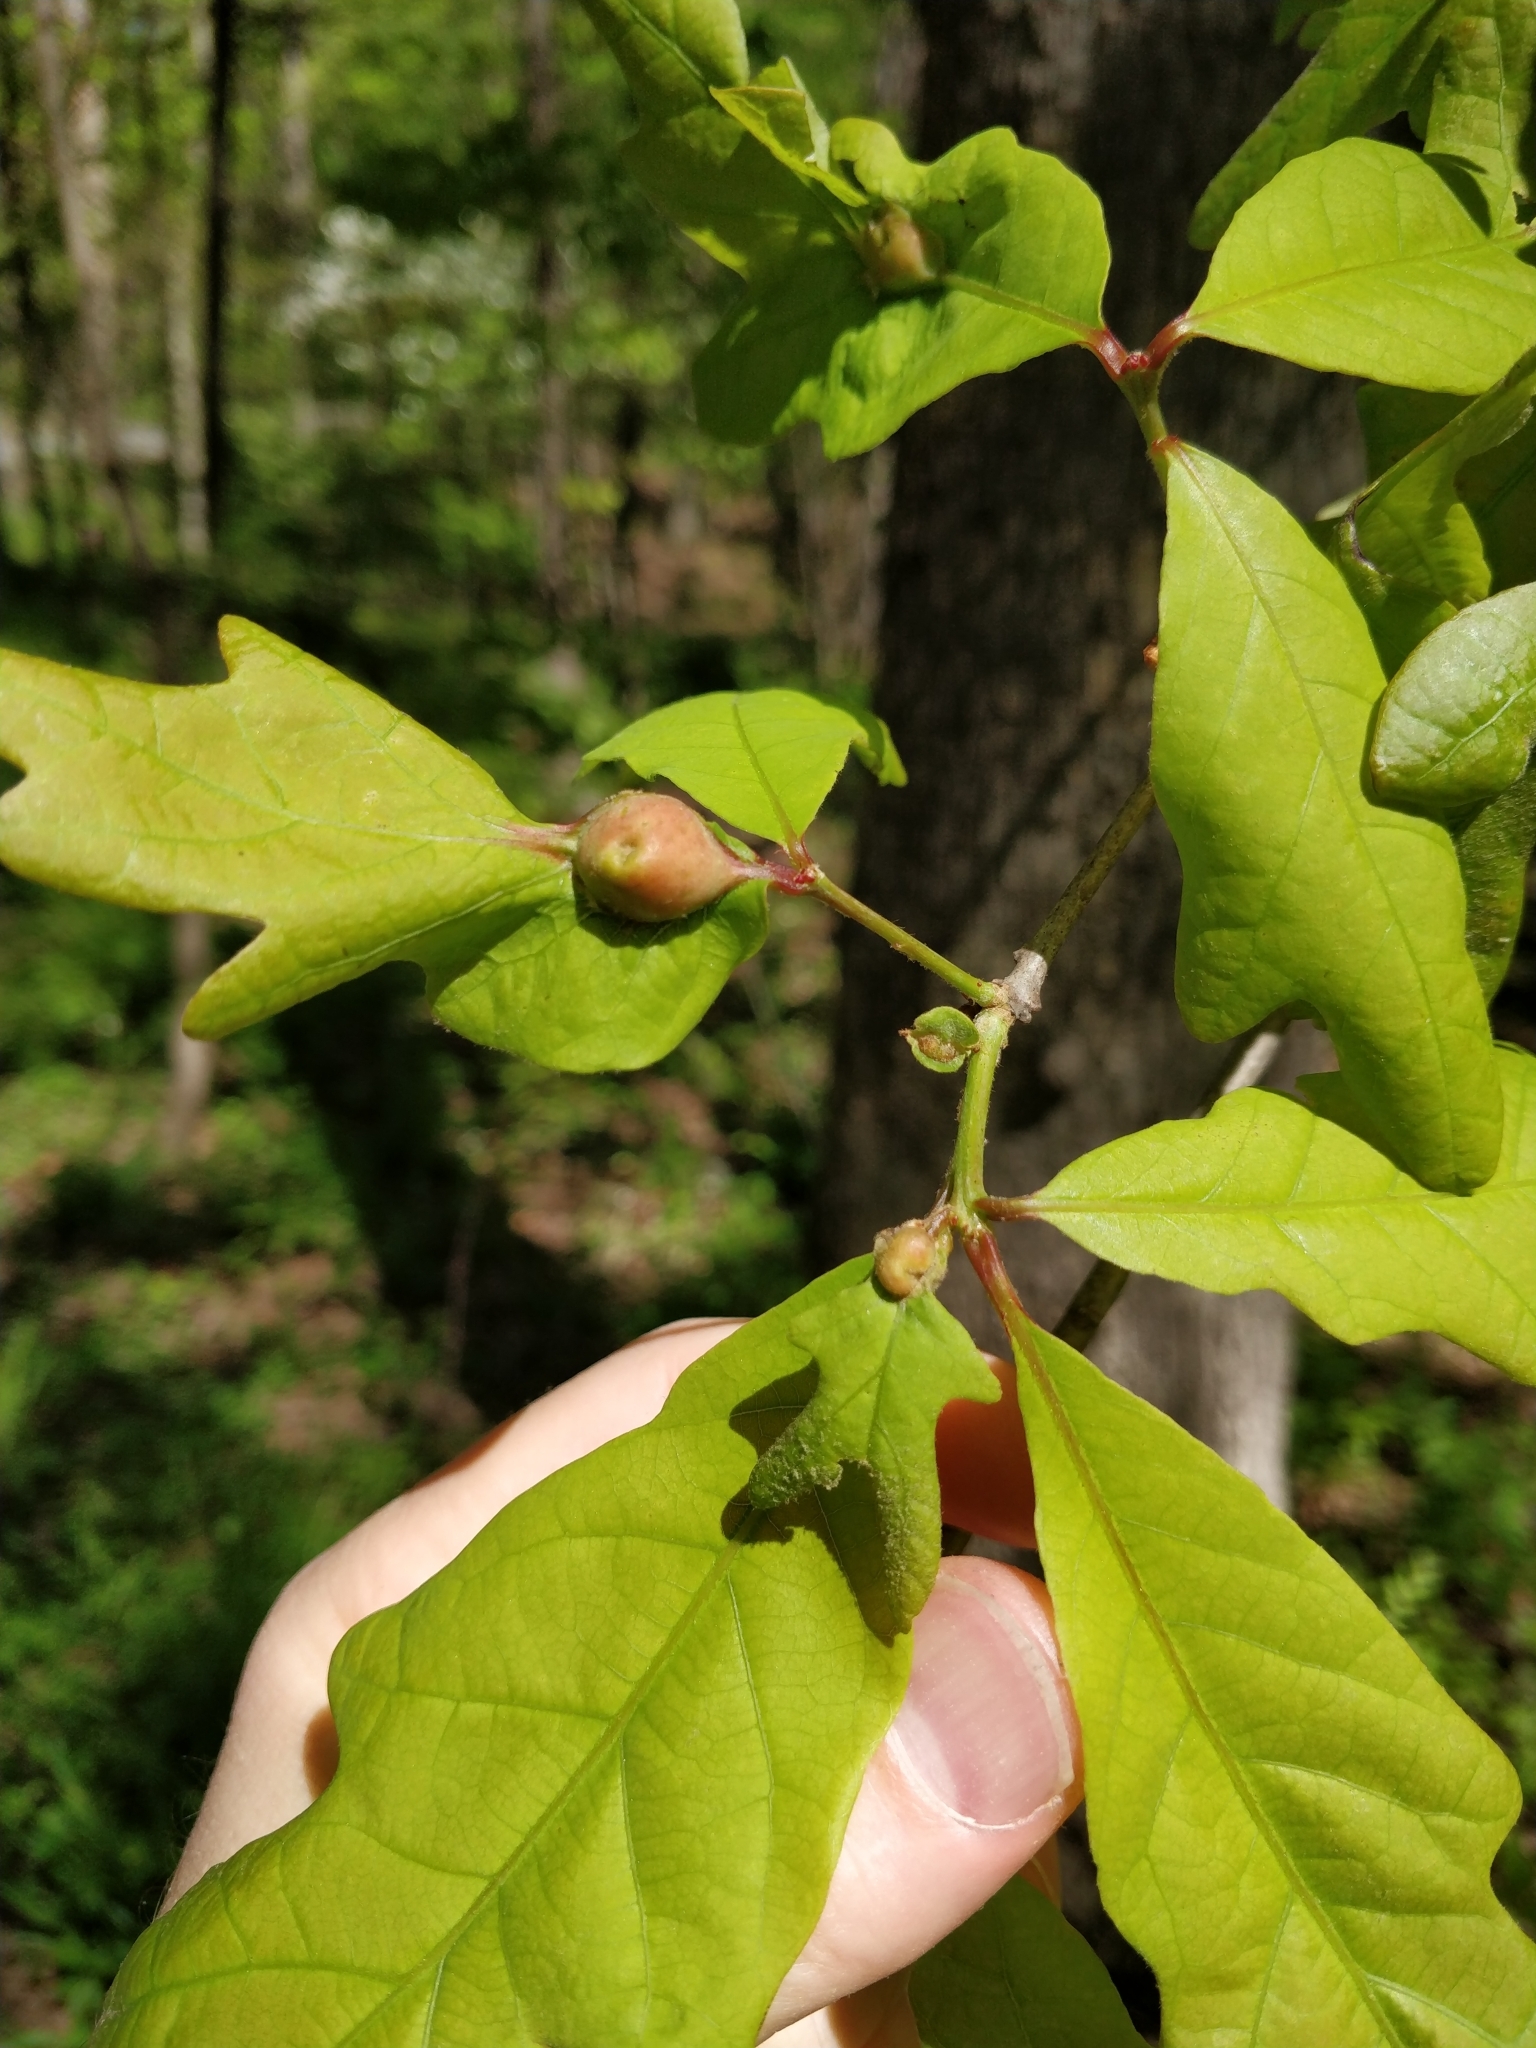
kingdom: Animalia
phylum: Arthropoda
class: Insecta
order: Hymenoptera
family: Cynipidae
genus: Andricus
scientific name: Andricus
